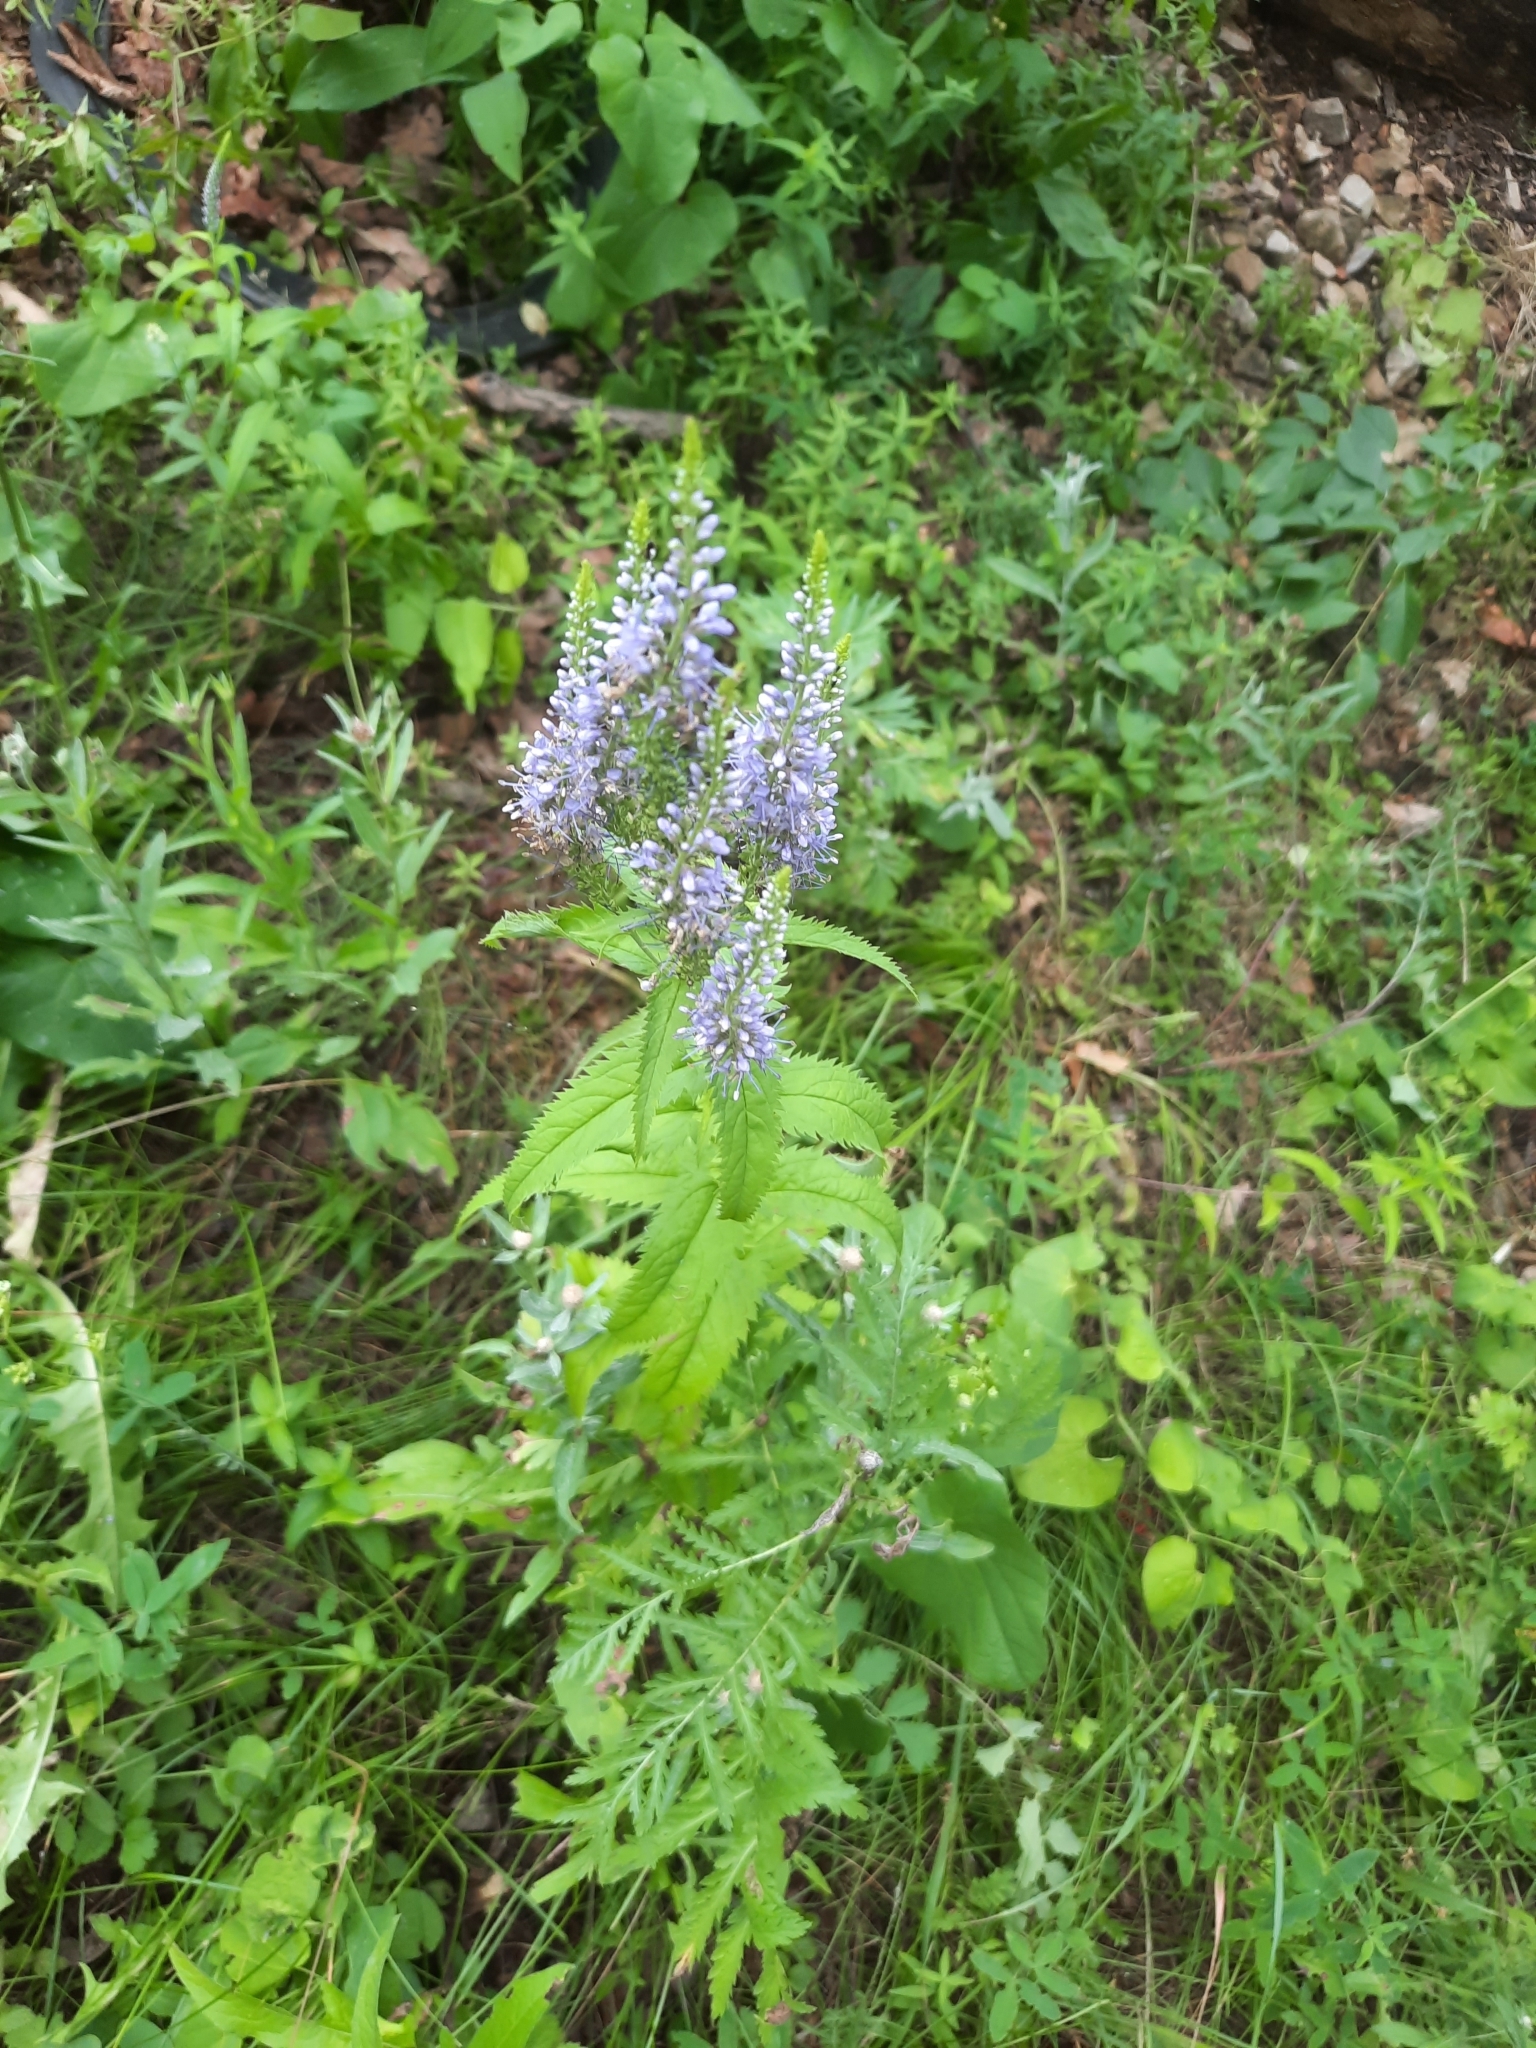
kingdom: Plantae
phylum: Tracheophyta
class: Magnoliopsida
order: Lamiales
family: Plantaginaceae
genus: Veronica
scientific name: Veronica longifolia
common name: Garden speedwell
